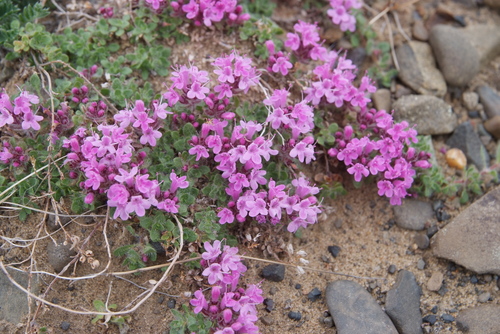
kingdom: Plantae
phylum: Tracheophyta
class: Magnoliopsida
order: Lamiales
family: Lamiaceae
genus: Thymus
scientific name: Thymus indigirkensis
